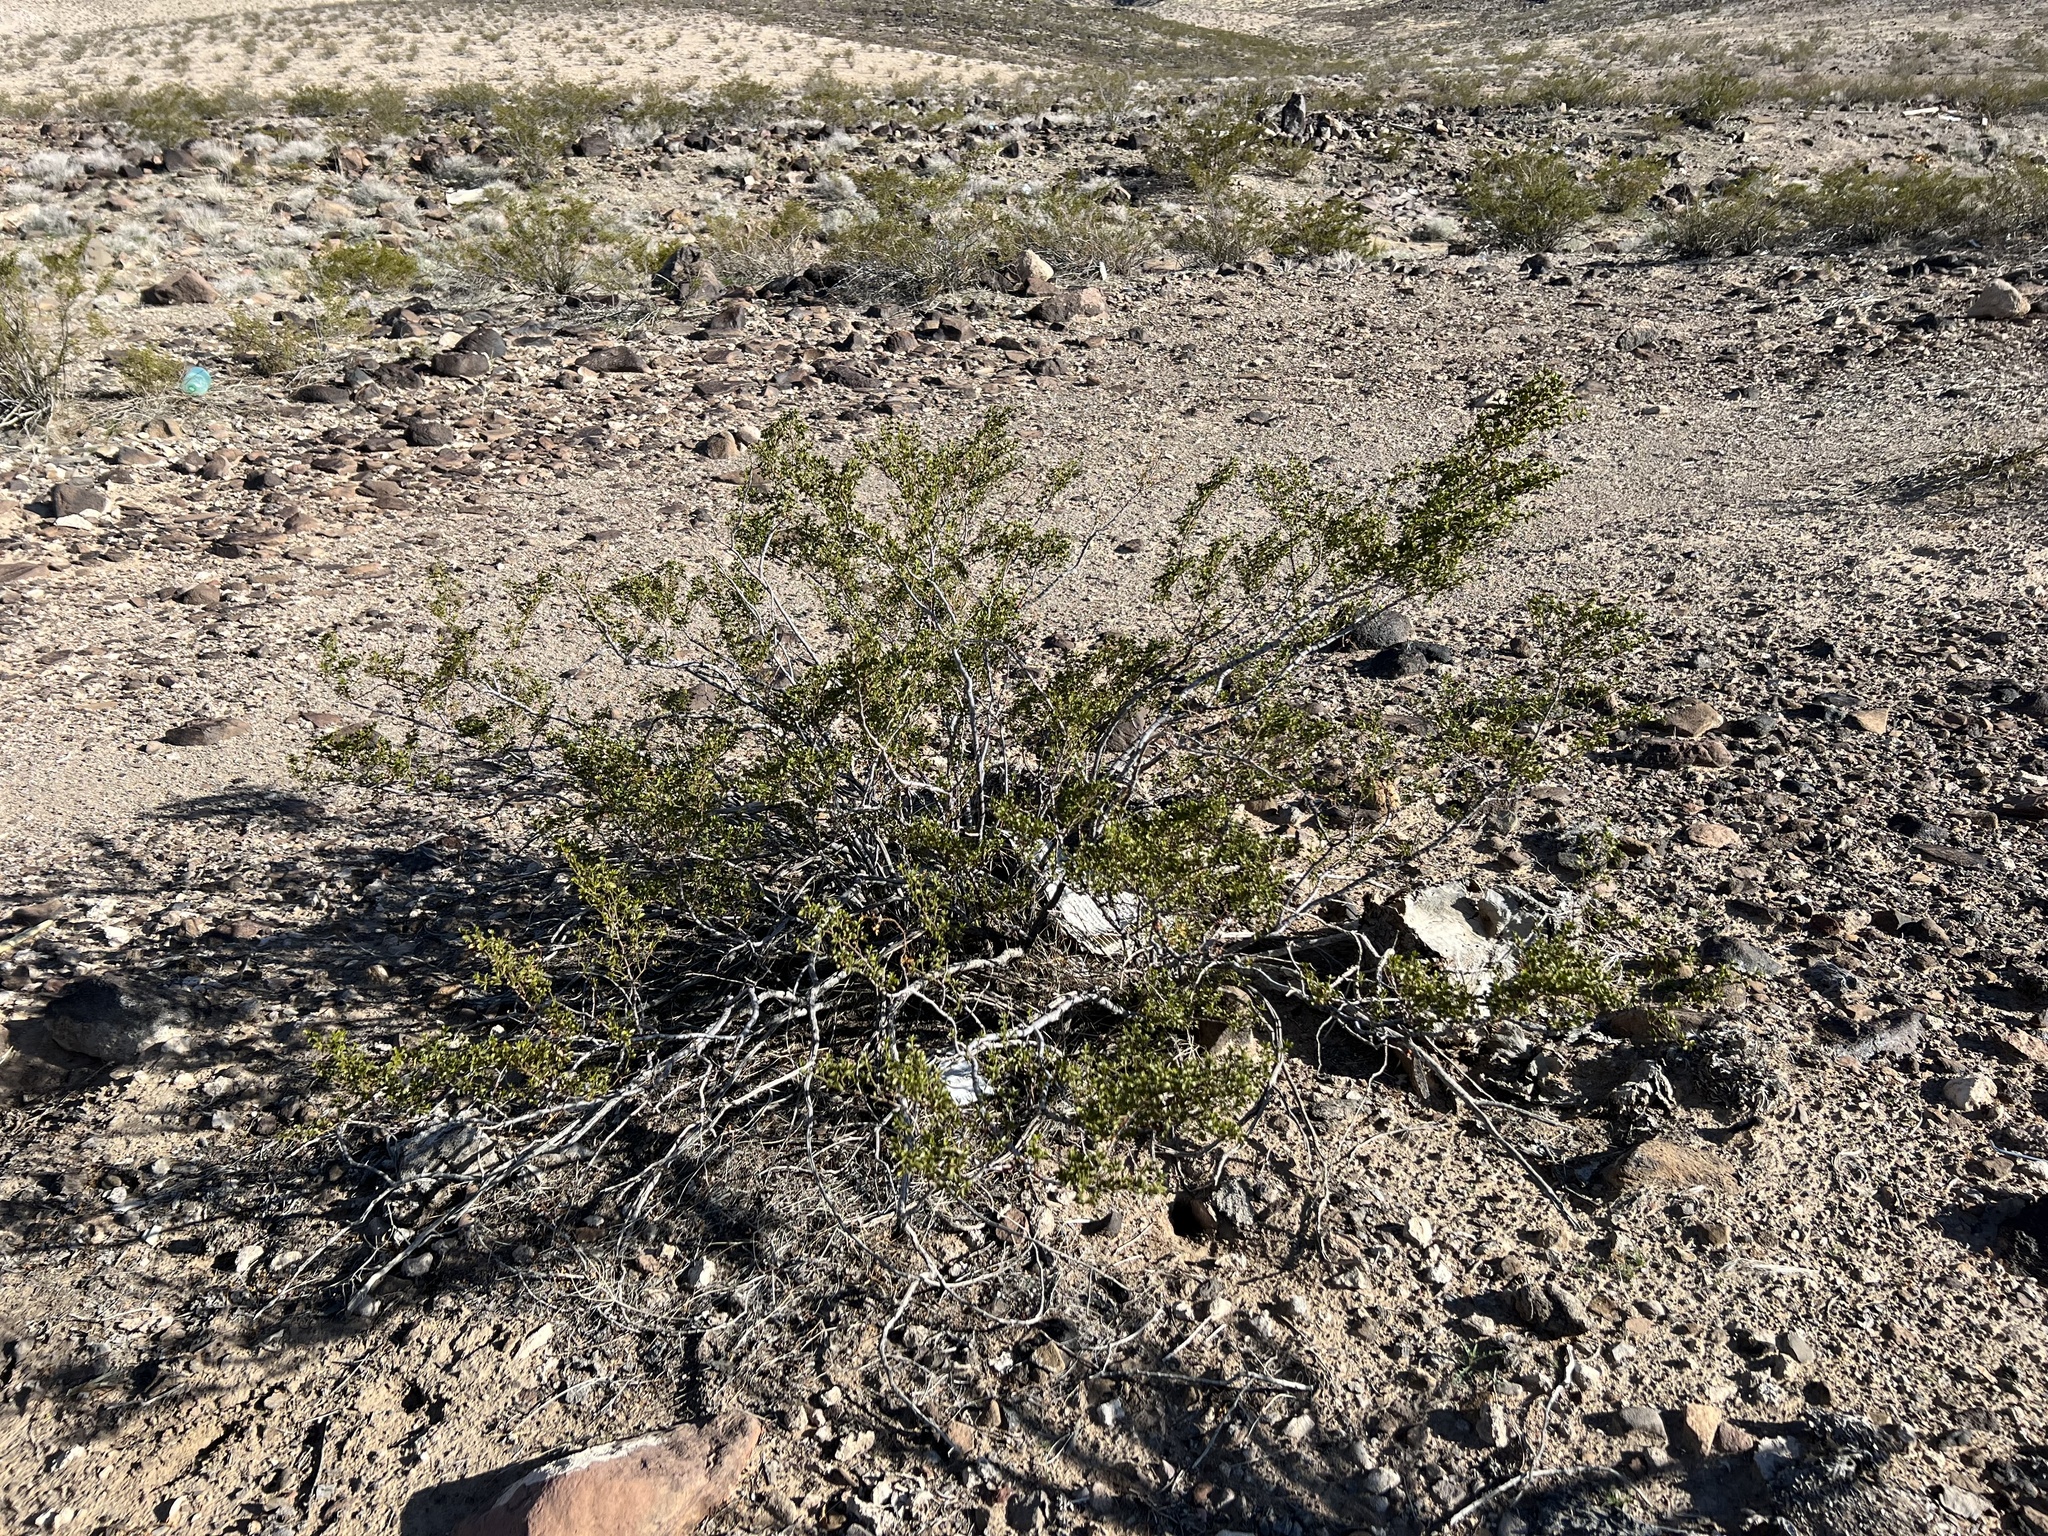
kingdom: Plantae
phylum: Tracheophyta
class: Magnoliopsida
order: Zygophyllales
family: Zygophyllaceae
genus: Larrea
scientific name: Larrea tridentata
